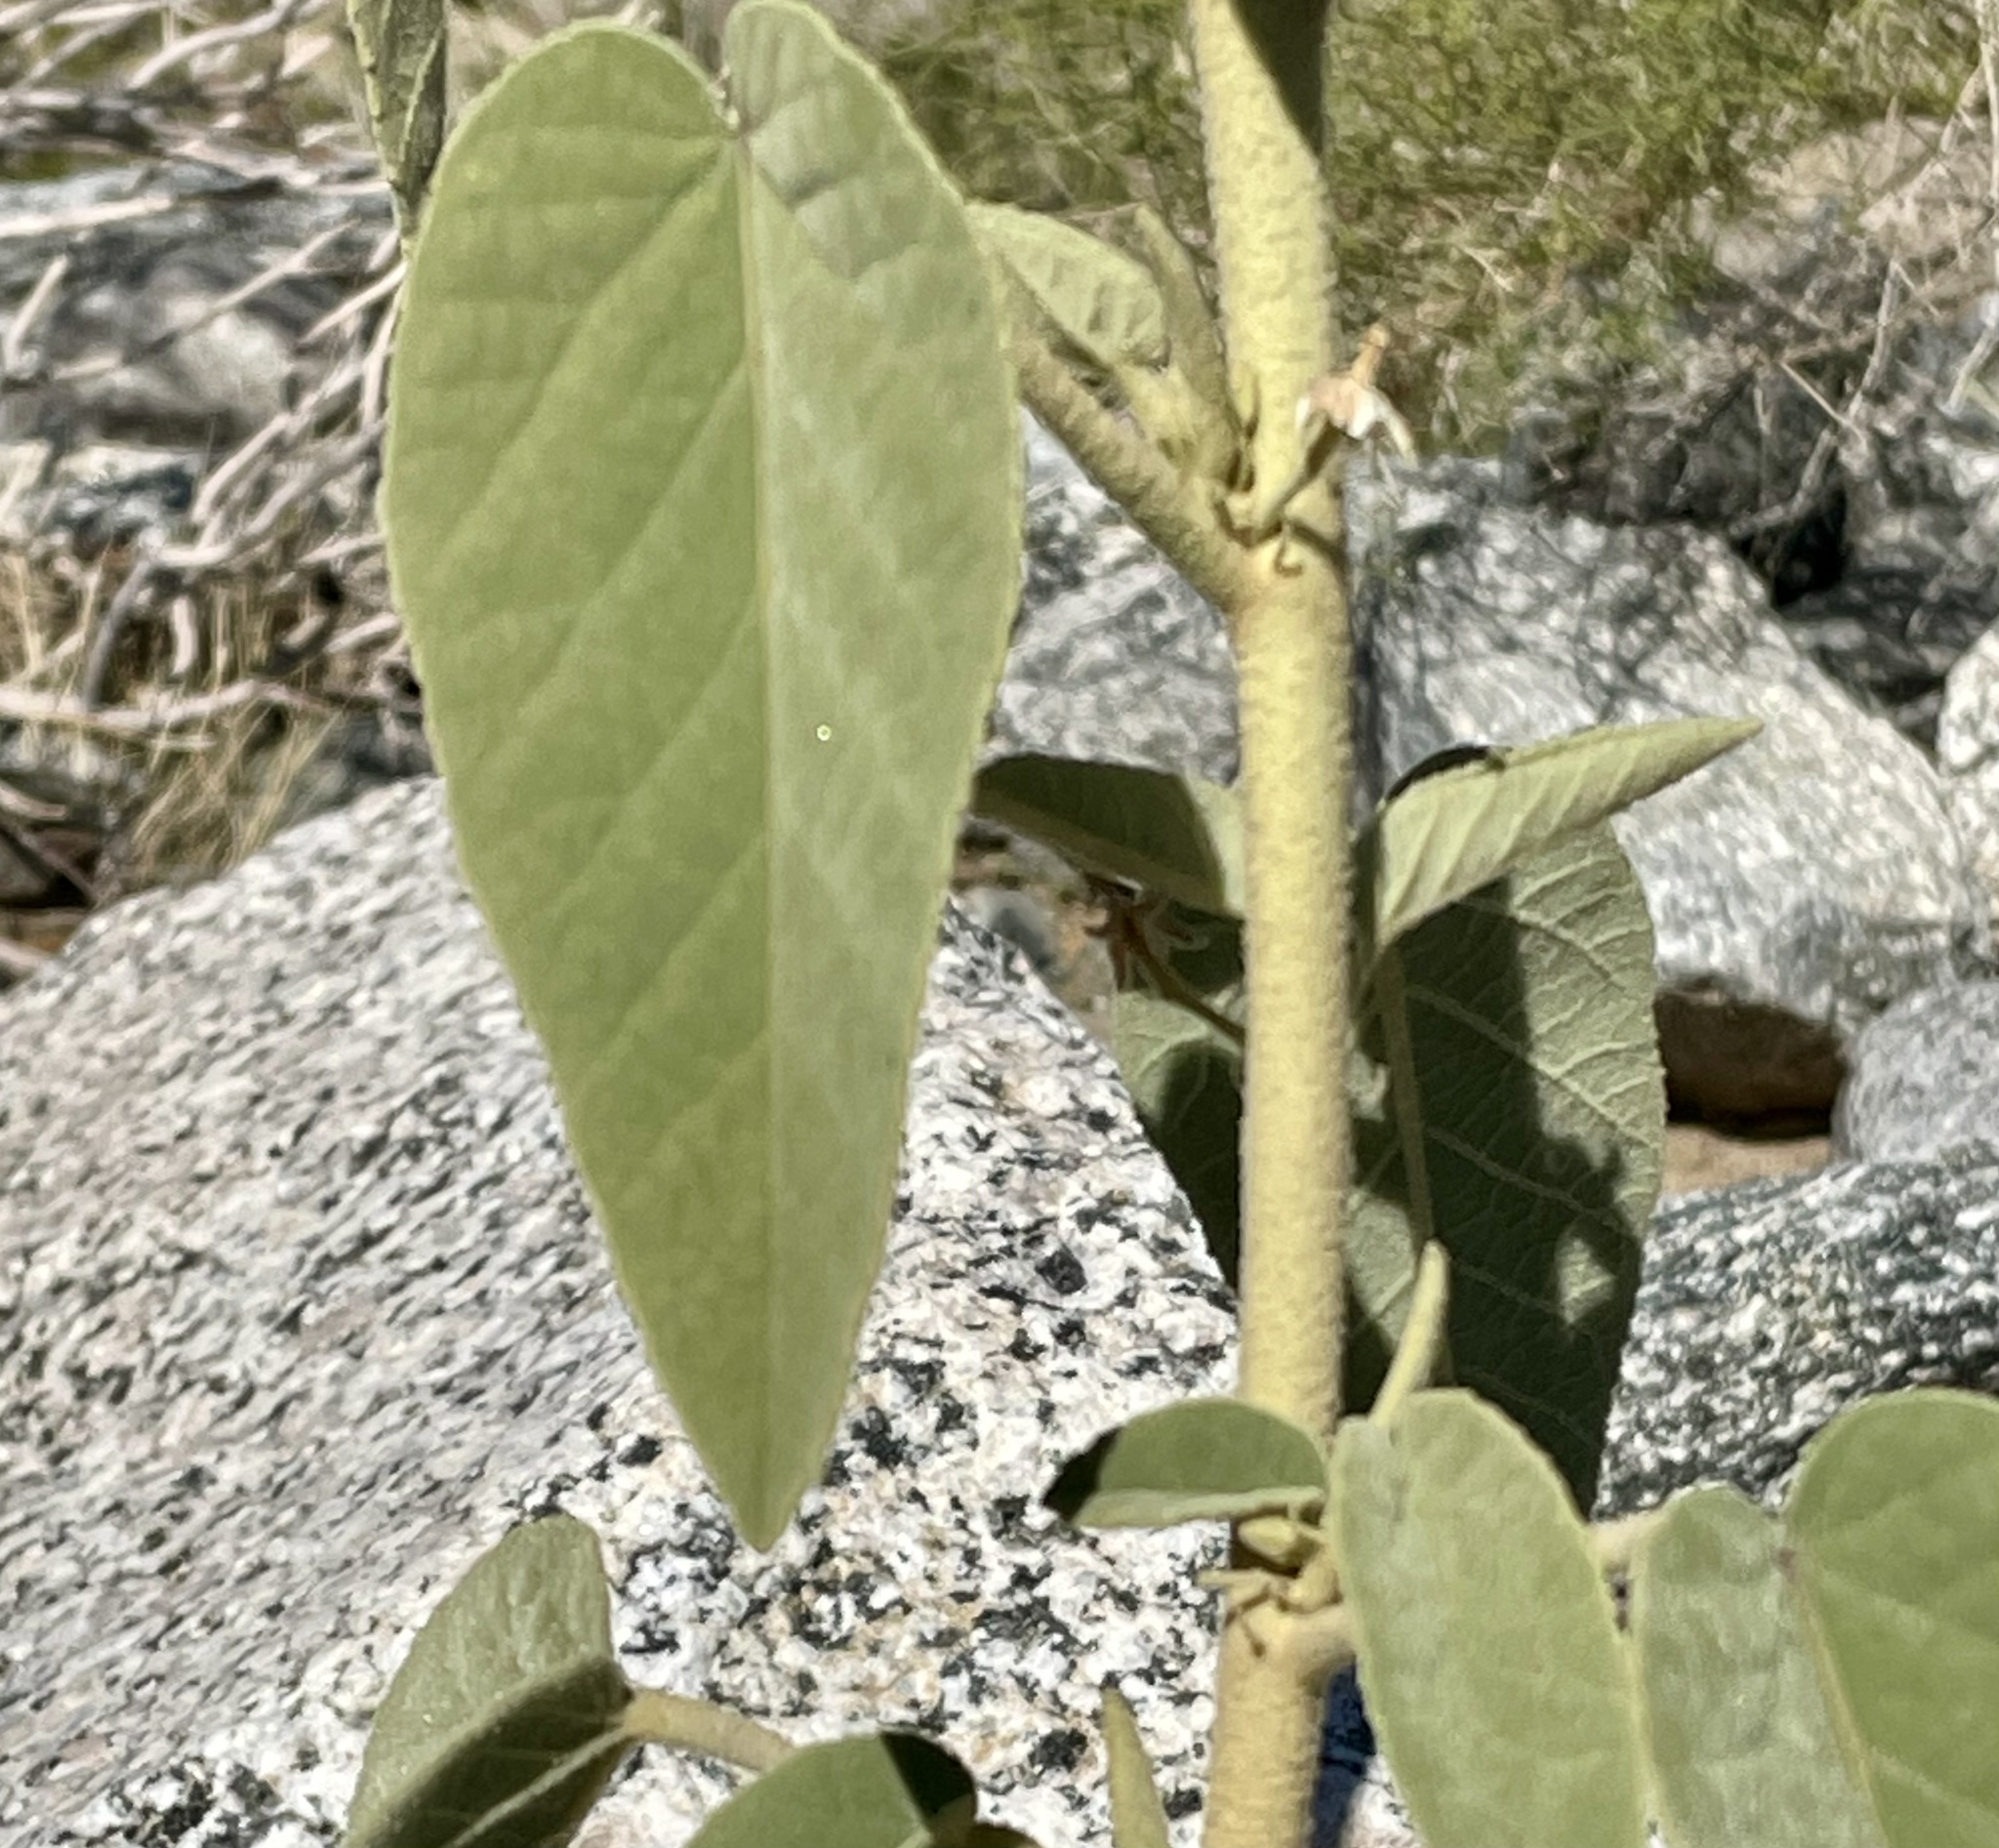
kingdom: Plantae
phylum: Tracheophyta
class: Magnoliopsida
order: Malvales
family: Malvaceae
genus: Horsfordia
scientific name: Horsfordia newberryi
